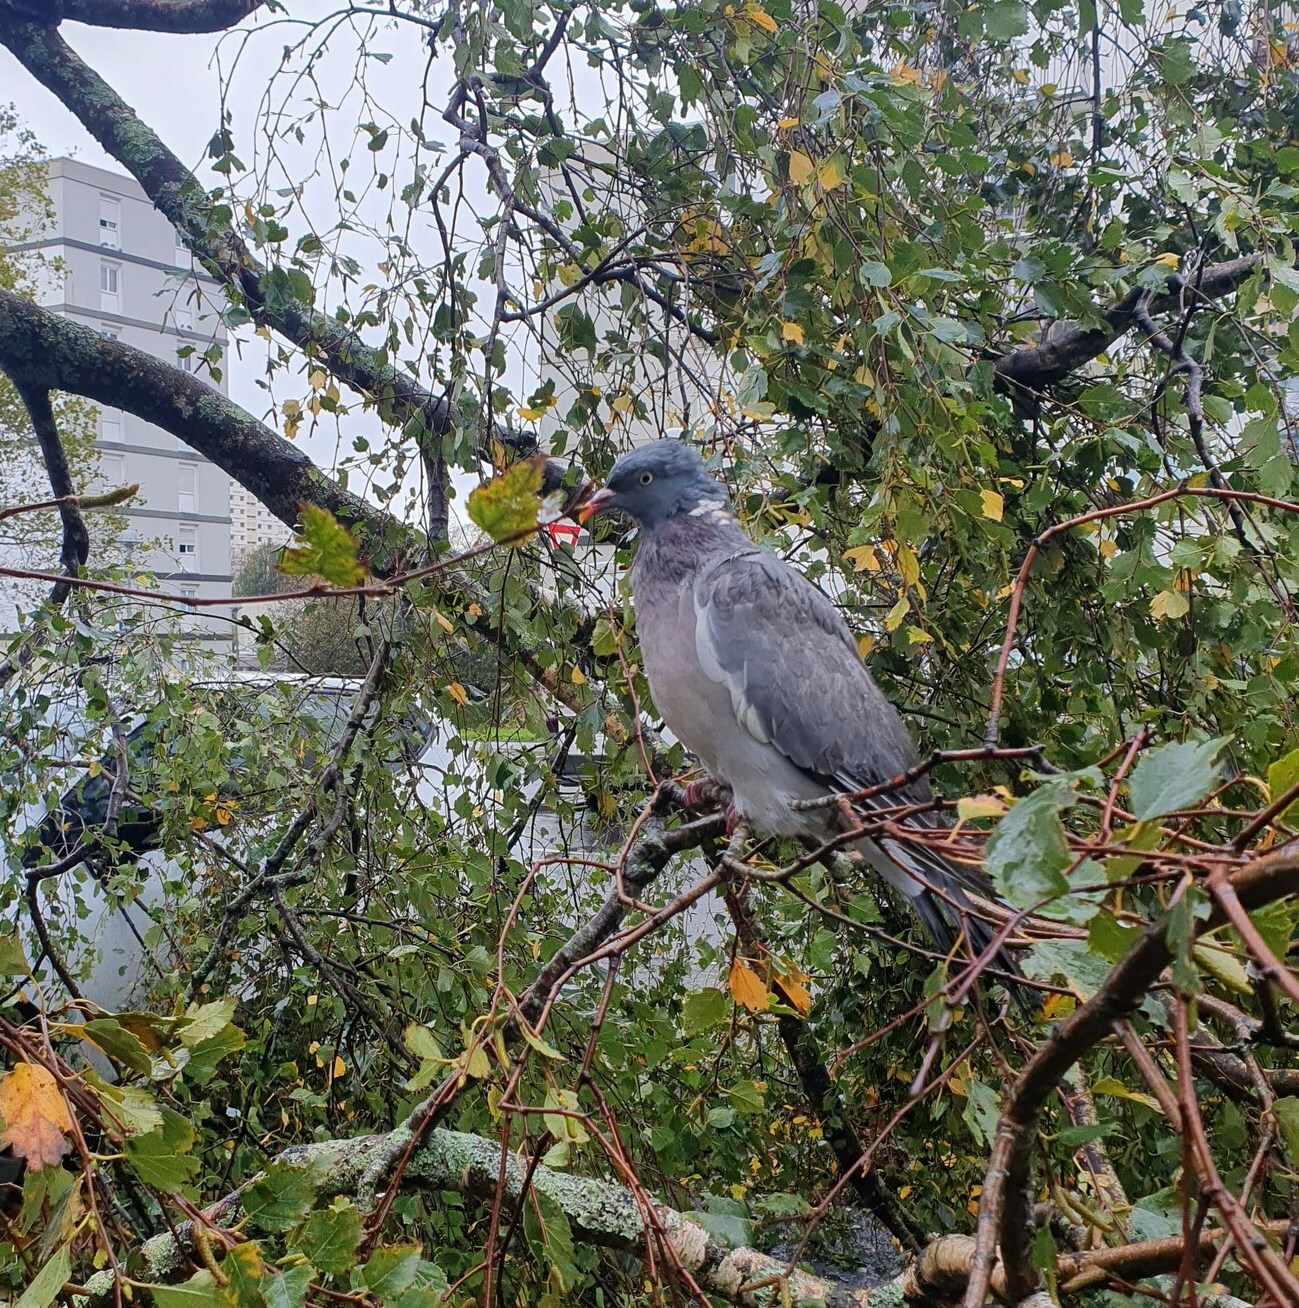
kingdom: Animalia
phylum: Chordata
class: Aves
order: Columbiformes
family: Columbidae
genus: Columba
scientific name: Columba palumbus
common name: Common wood pigeon
